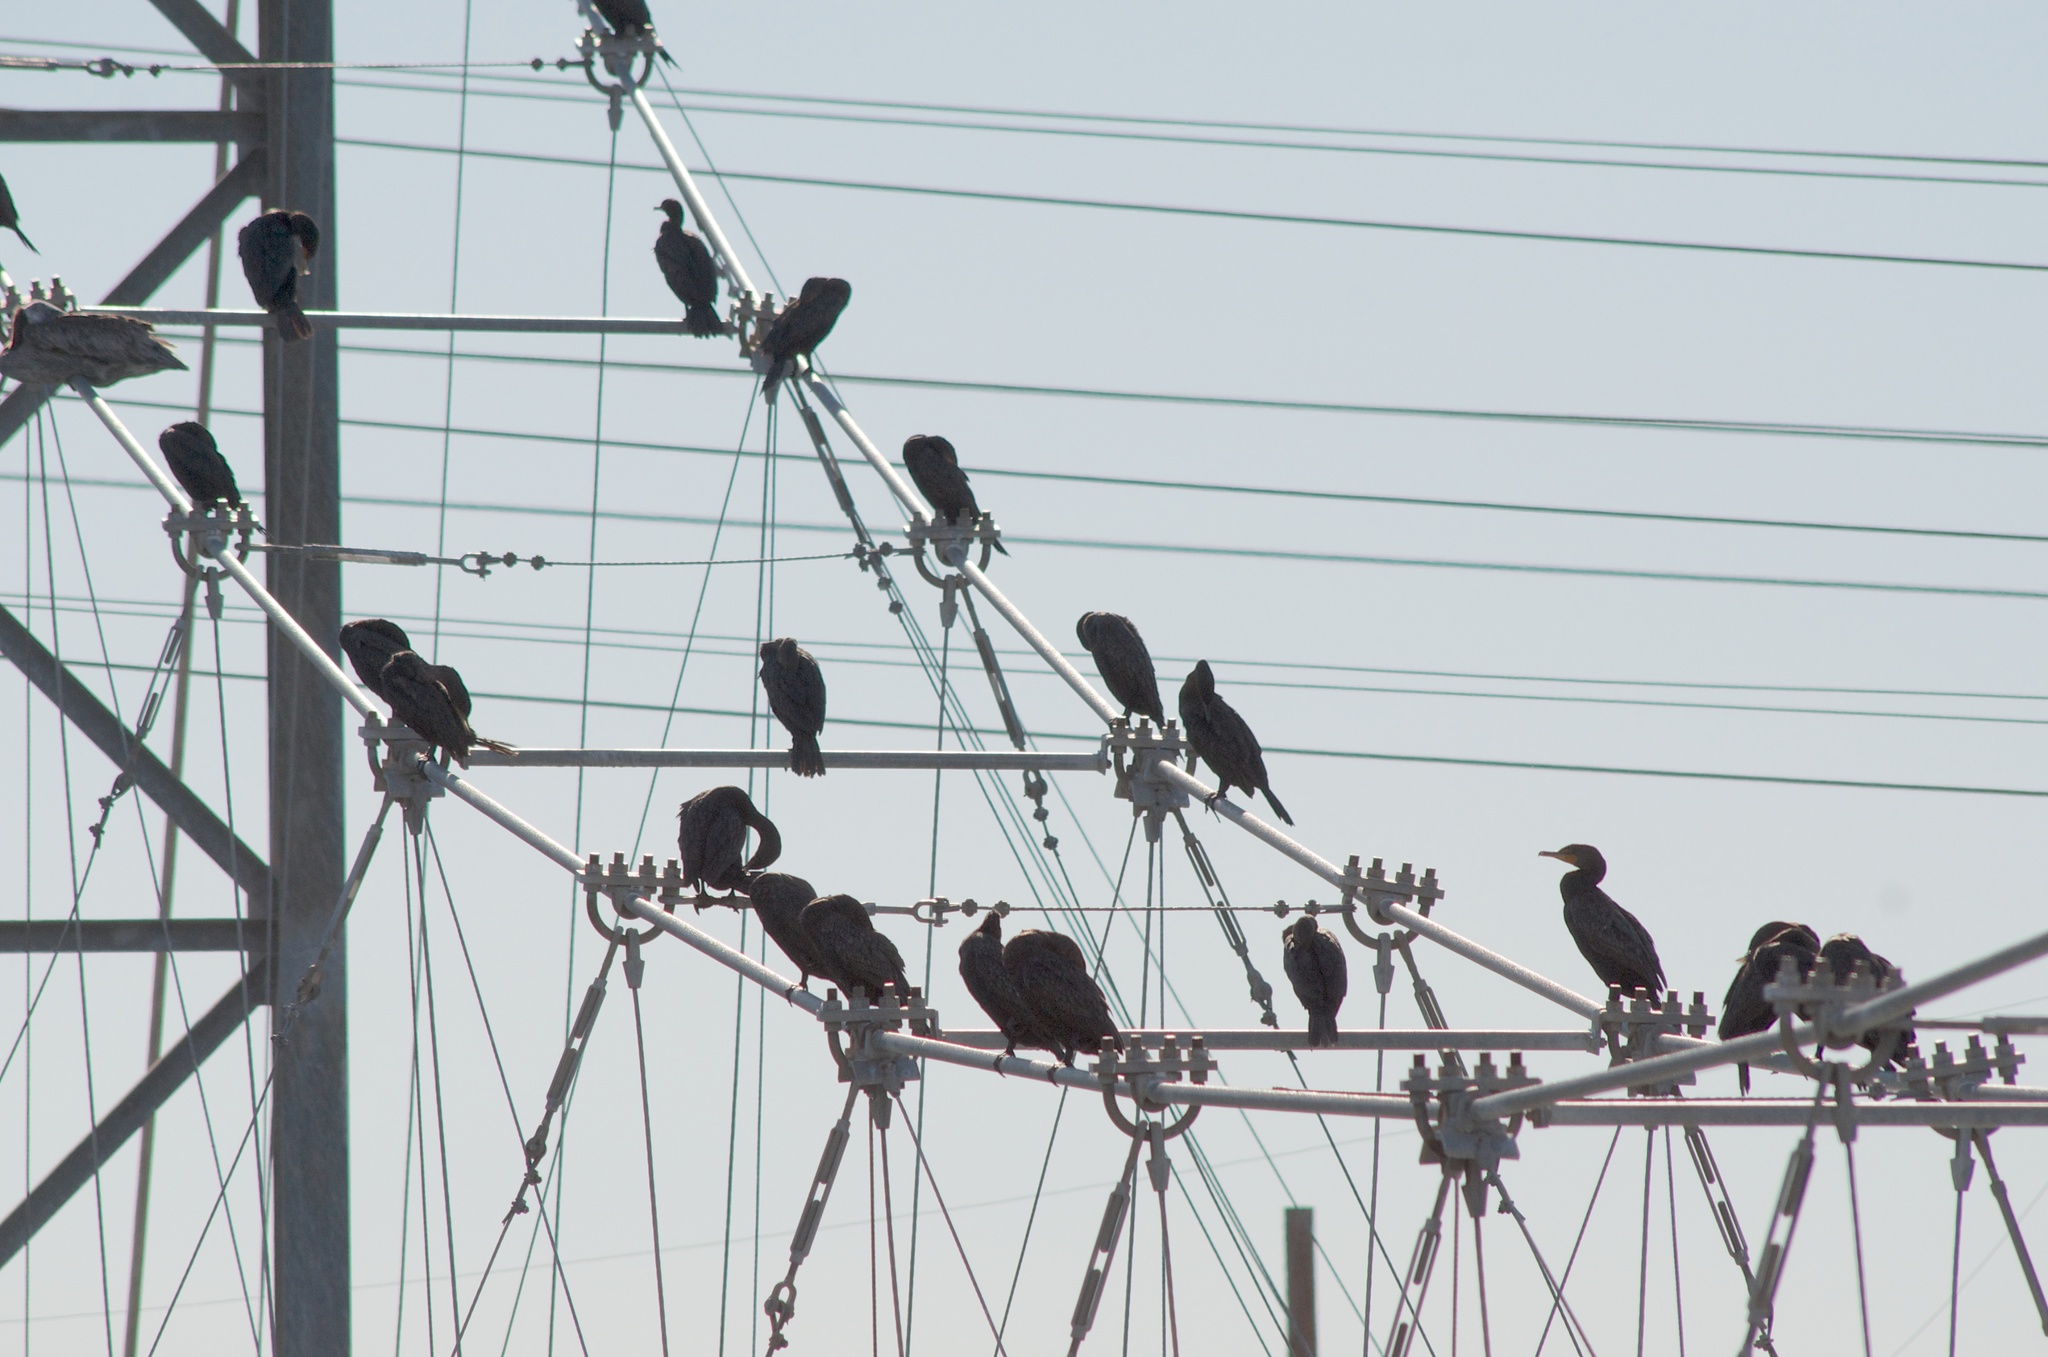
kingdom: Animalia
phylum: Chordata
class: Aves
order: Suliformes
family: Phalacrocoracidae
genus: Phalacrocorax
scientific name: Phalacrocorax auritus
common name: Double-crested cormorant
